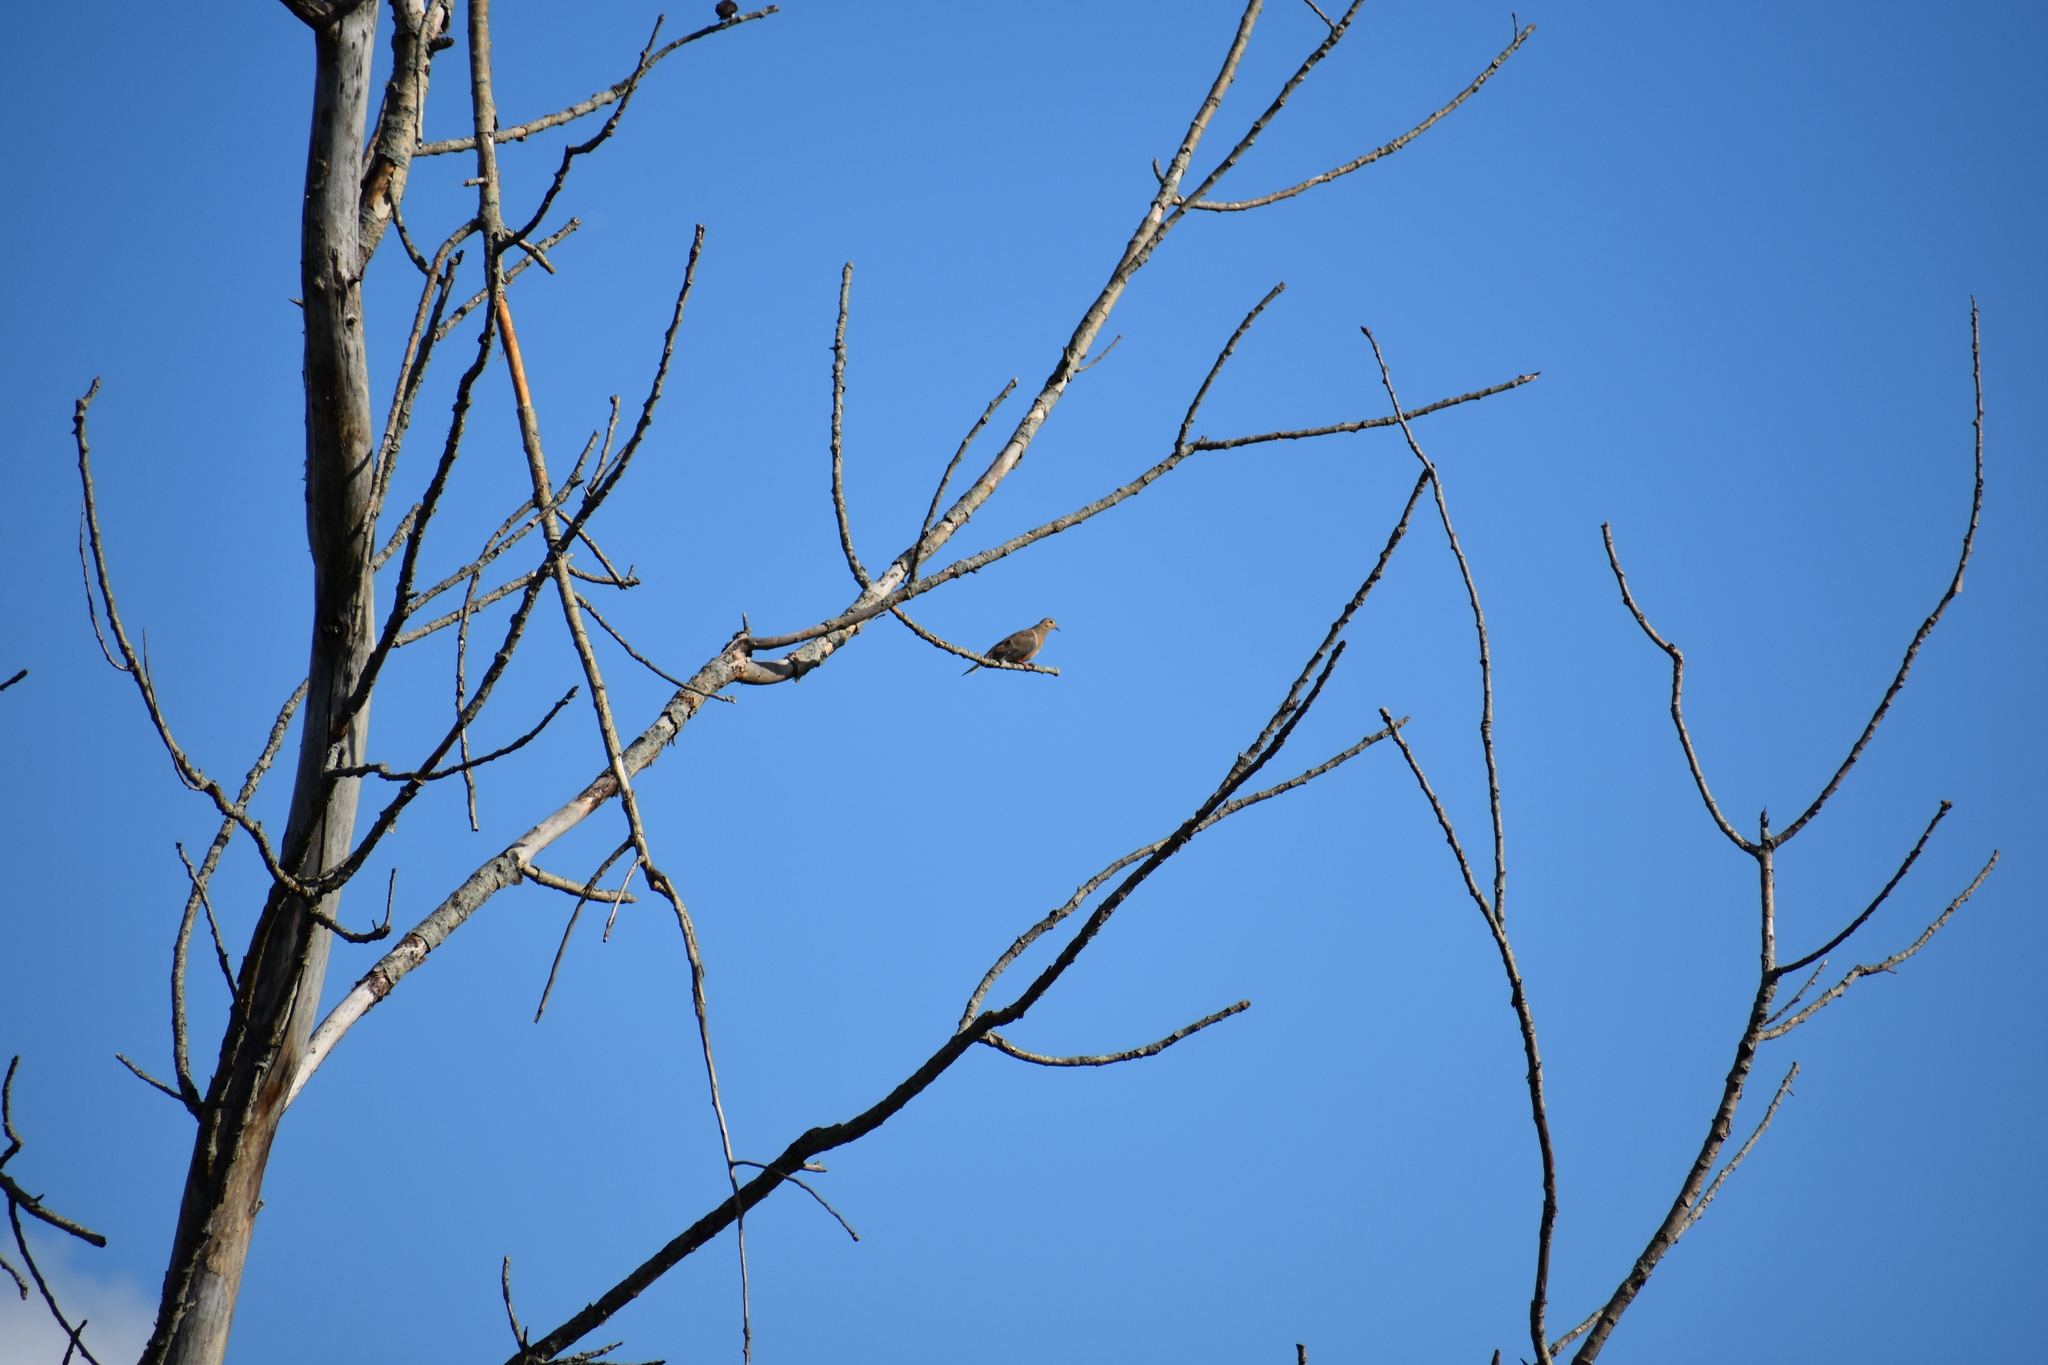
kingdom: Animalia
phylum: Chordata
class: Aves
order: Columbiformes
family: Columbidae
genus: Zenaida
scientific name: Zenaida macroura
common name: Mourning dove
